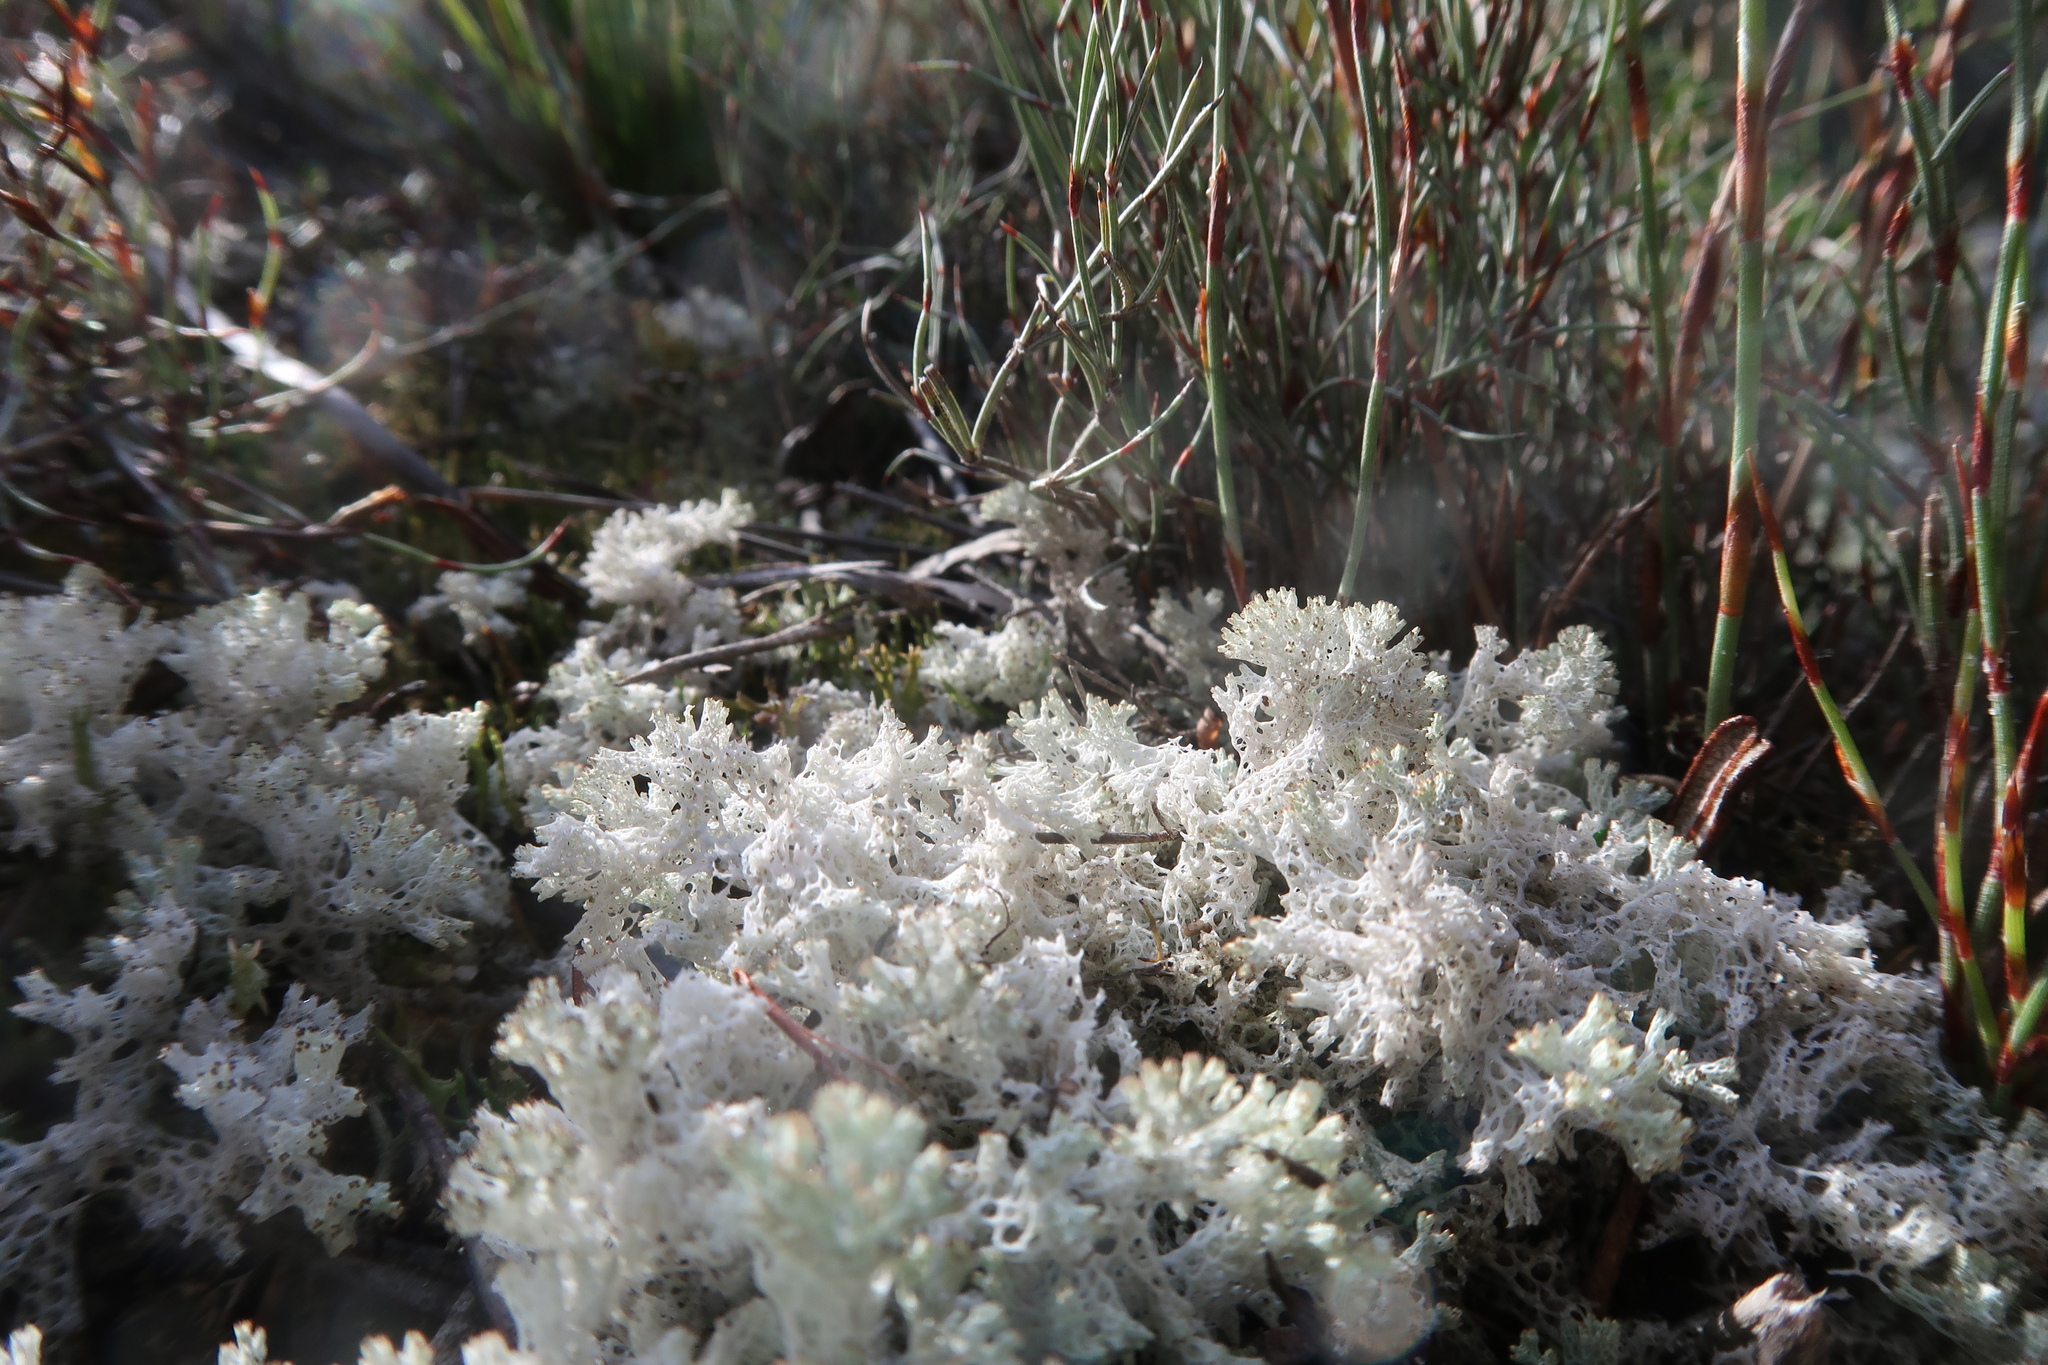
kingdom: Fungi
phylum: Ascomycota
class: Lecanoromycetes
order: Lecanorales
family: Cladoniaceae
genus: Pulchrocladia
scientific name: Pulchrocladia retipora
